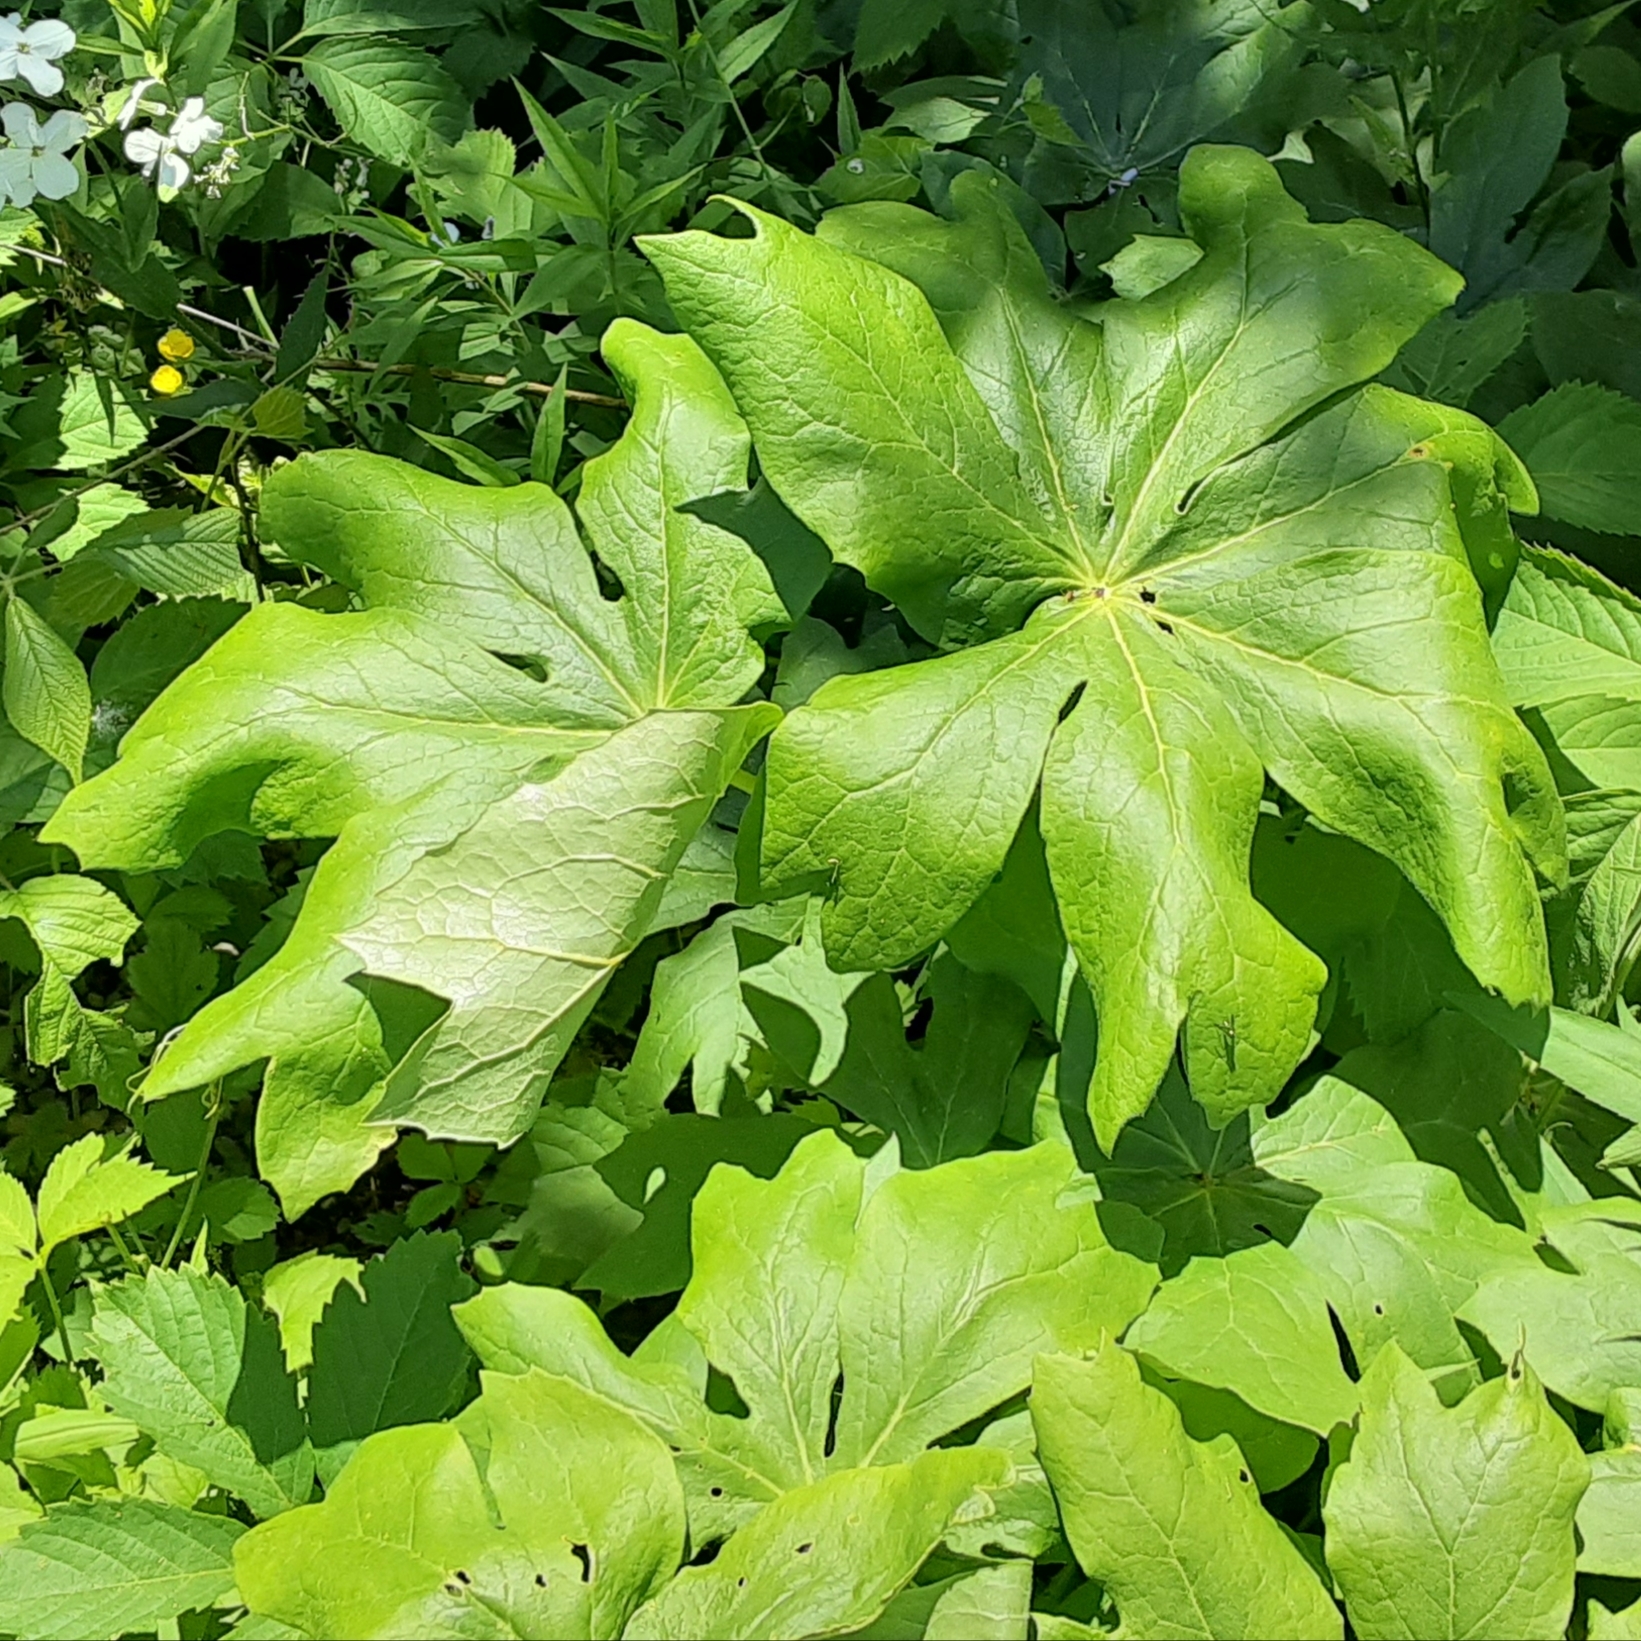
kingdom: Plantae
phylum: Tracheophyta
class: Magnoliopsida
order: Ranunculales
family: Berberidaceae
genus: Podophyllum
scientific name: Podophyllum peltatum
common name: Wild mandrake
